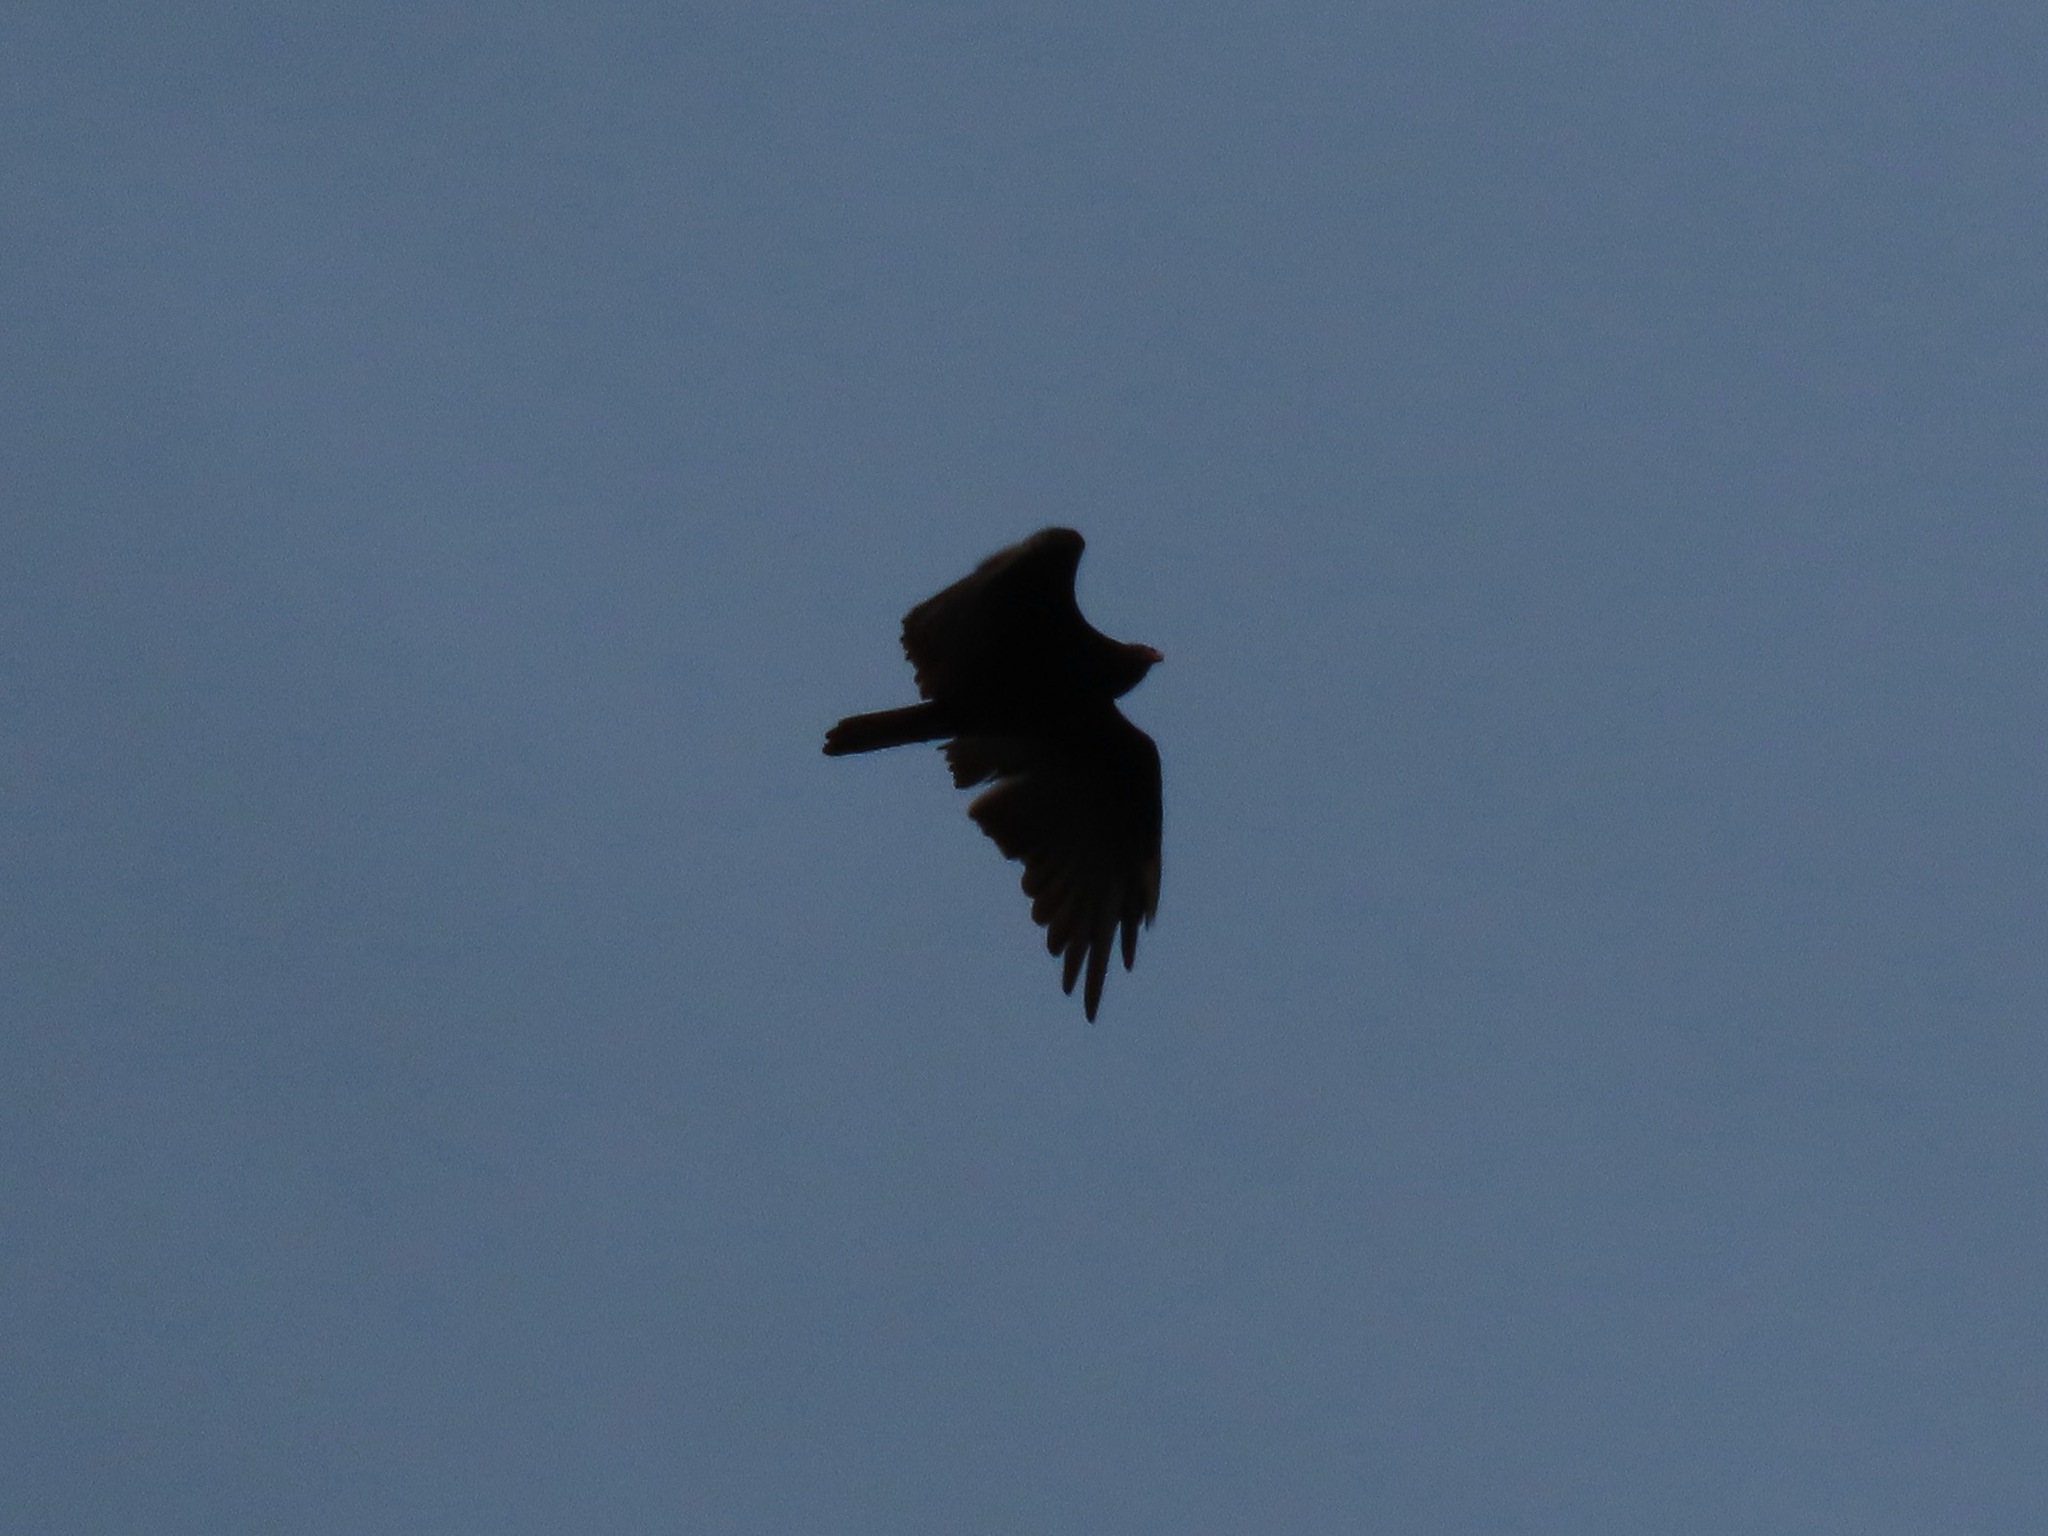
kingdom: Animalia
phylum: Chordata
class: Aves
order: Accipitriformes
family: Cathartidae
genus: Cathartes
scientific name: Cathartes aura
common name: Turkey vulture
